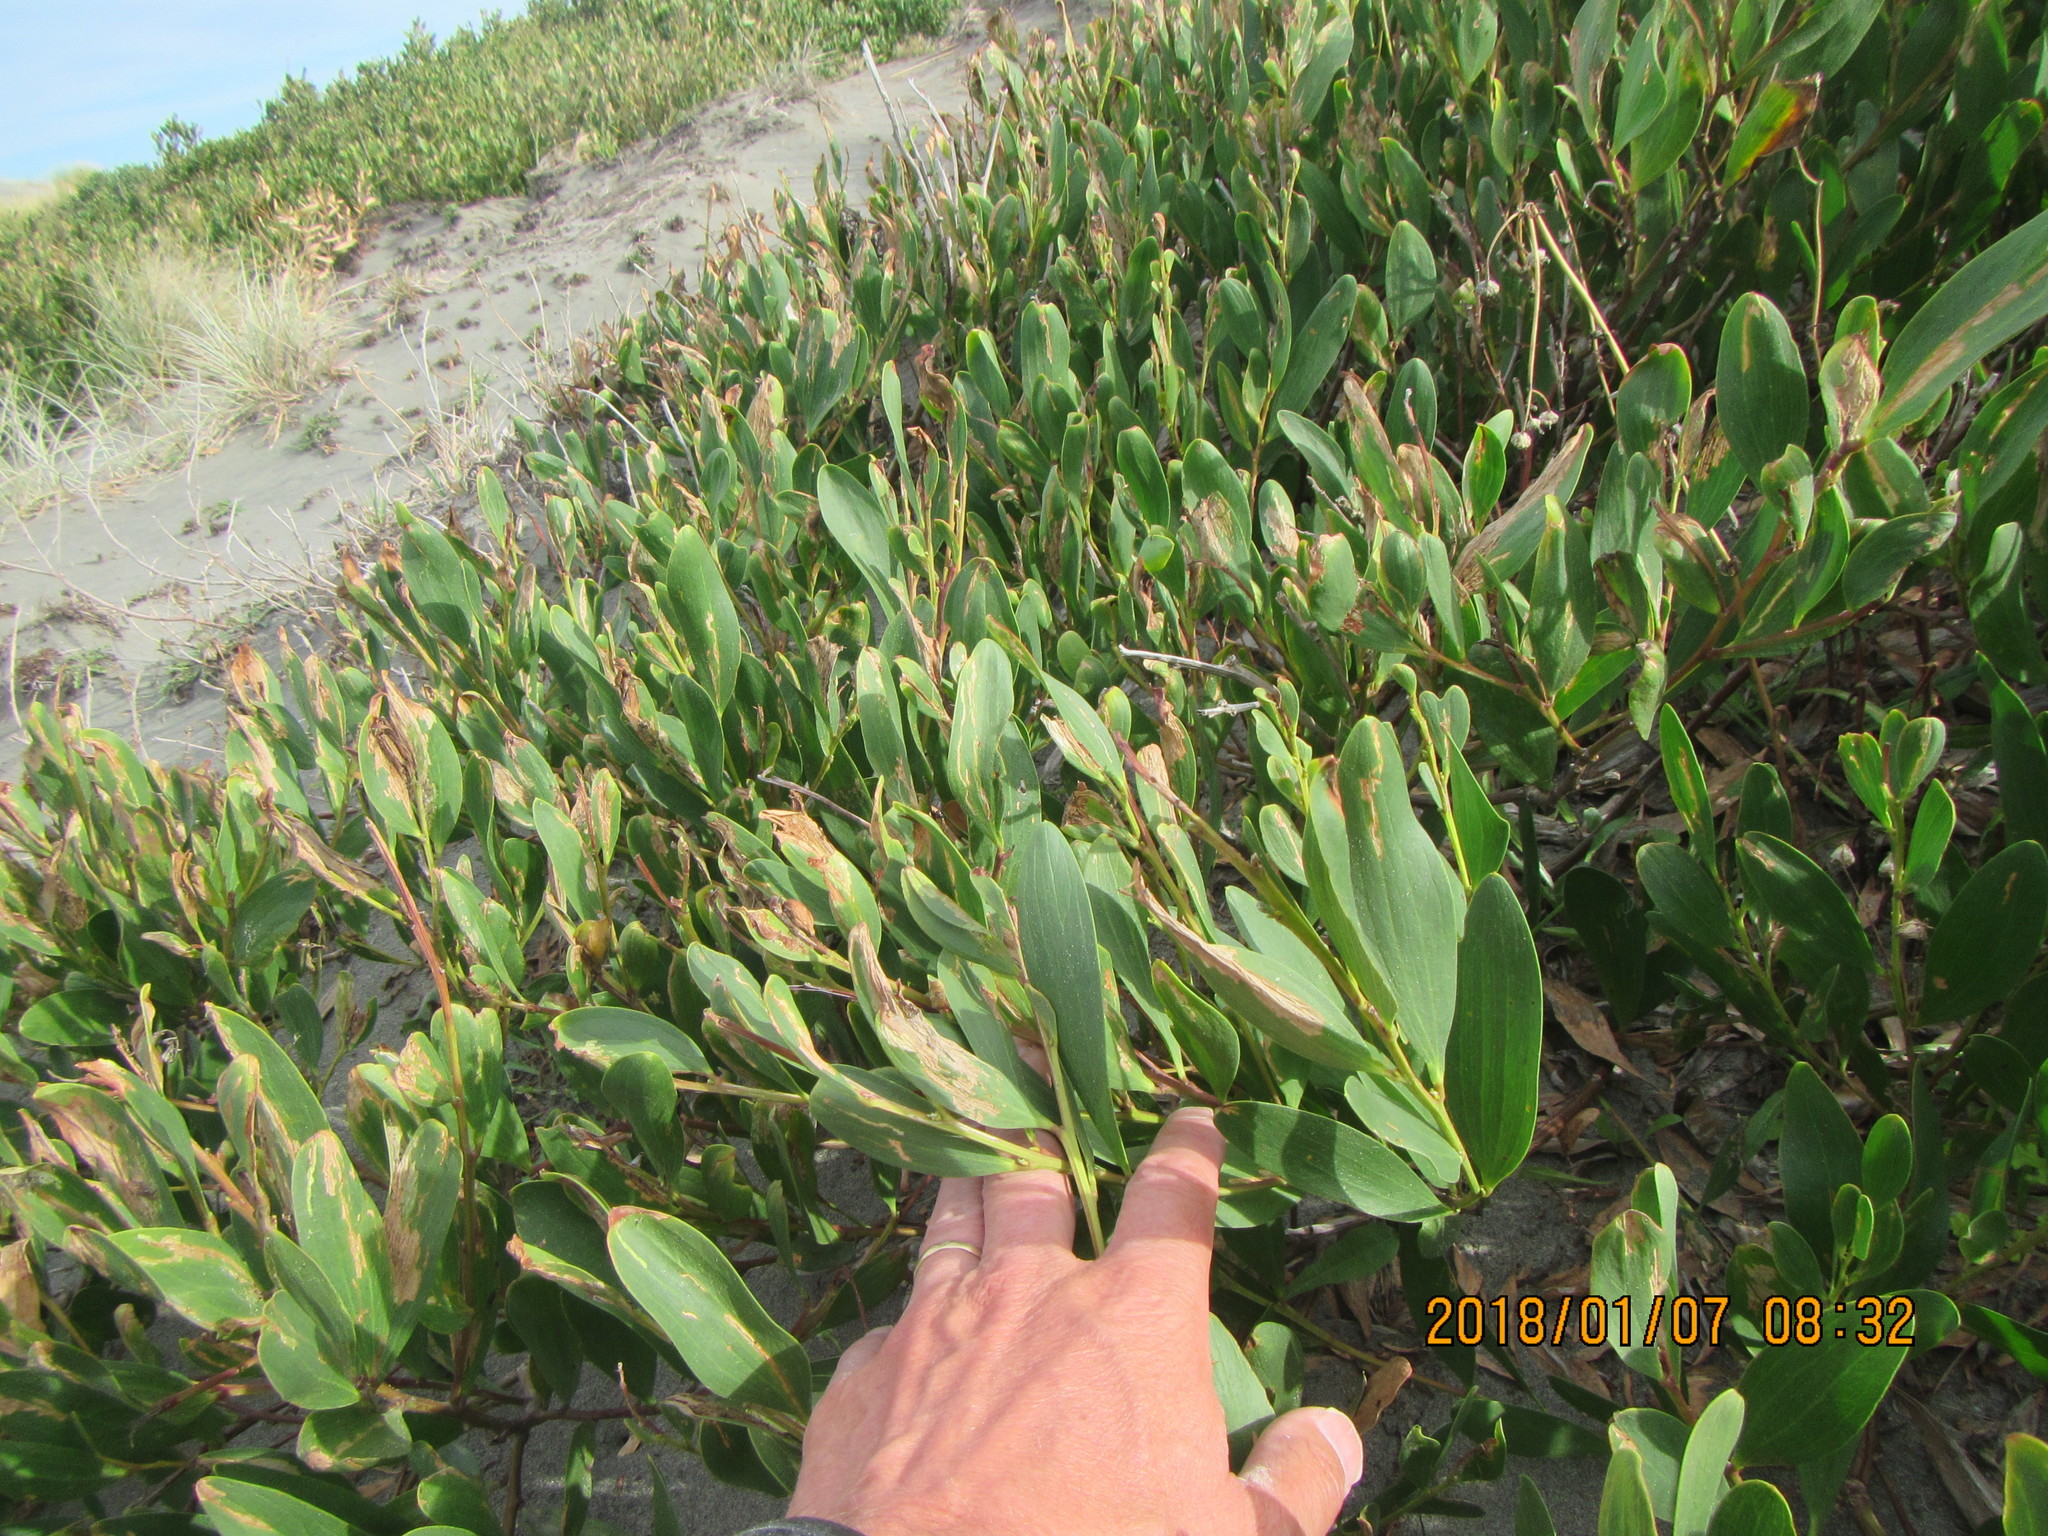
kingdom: Plantae
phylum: Tracheophyta
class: Magnoliopsida
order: Fabales
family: Fabaceae
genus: Acacia
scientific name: Acacia longifolia
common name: Sydney golden wattle
